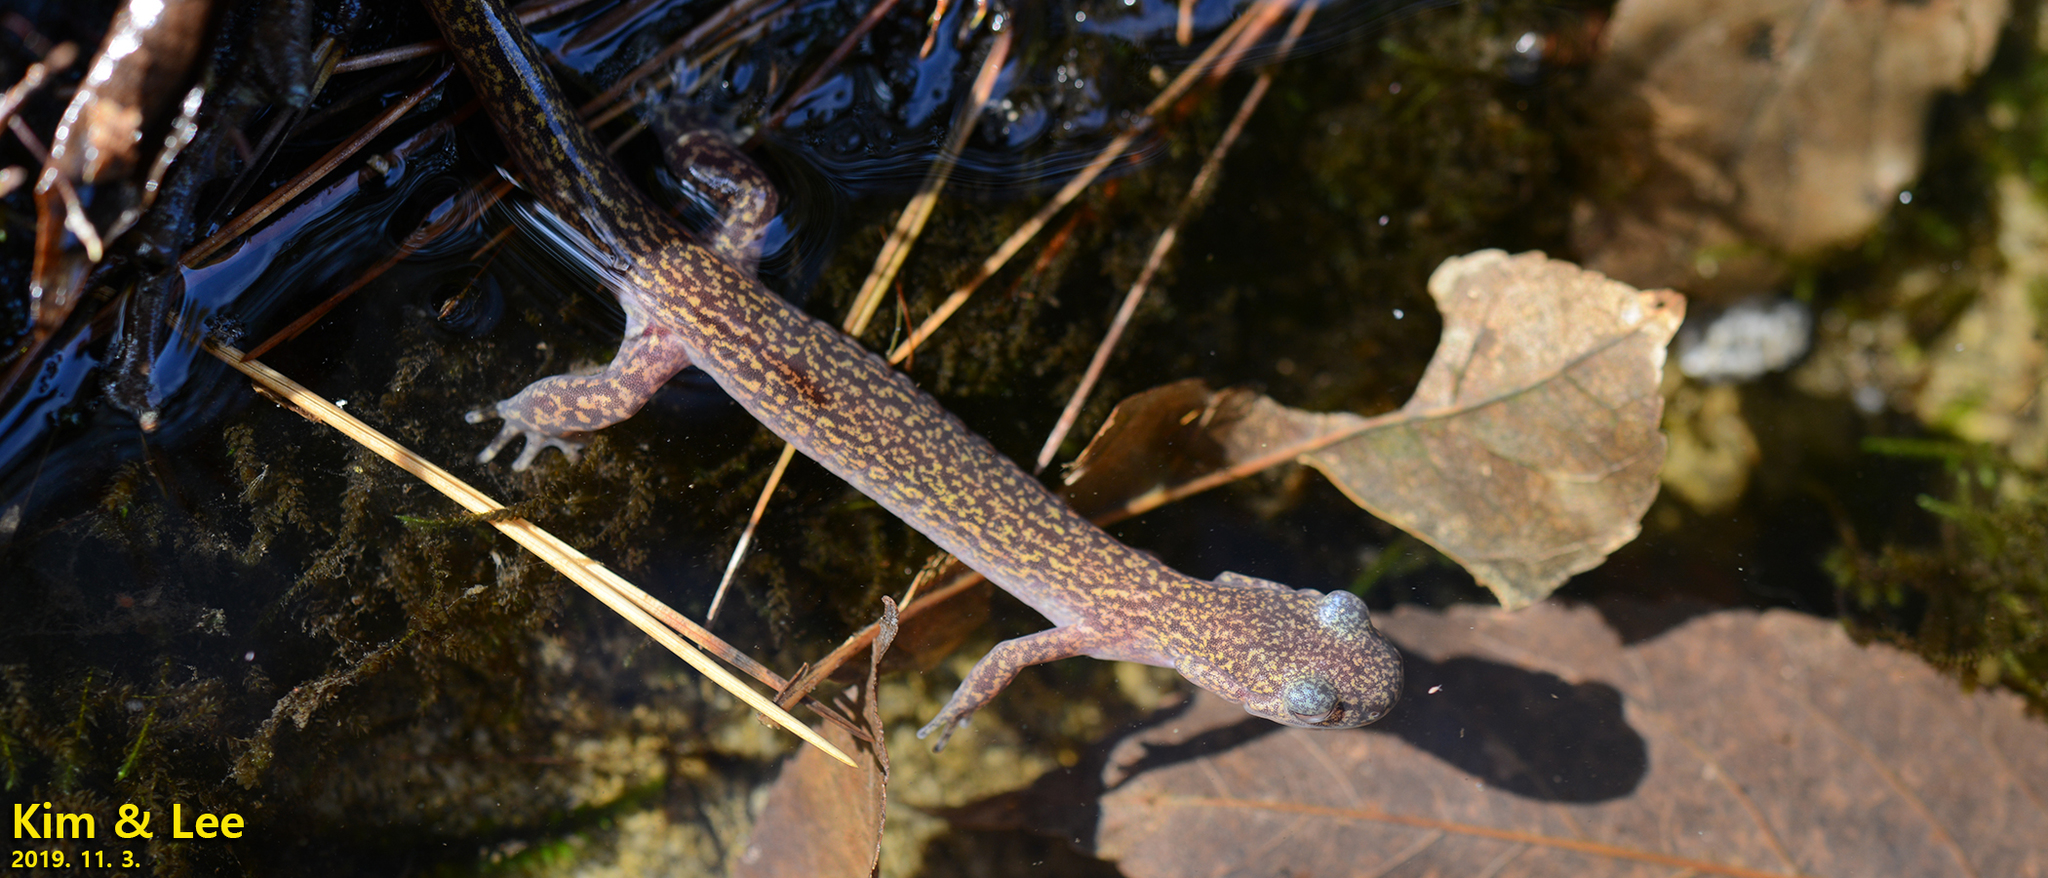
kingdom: Animalia
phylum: Chordata
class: Amphibia
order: Caudata
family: Hynobiidae
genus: Onychodactylus
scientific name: Onychodactylus koreanus
